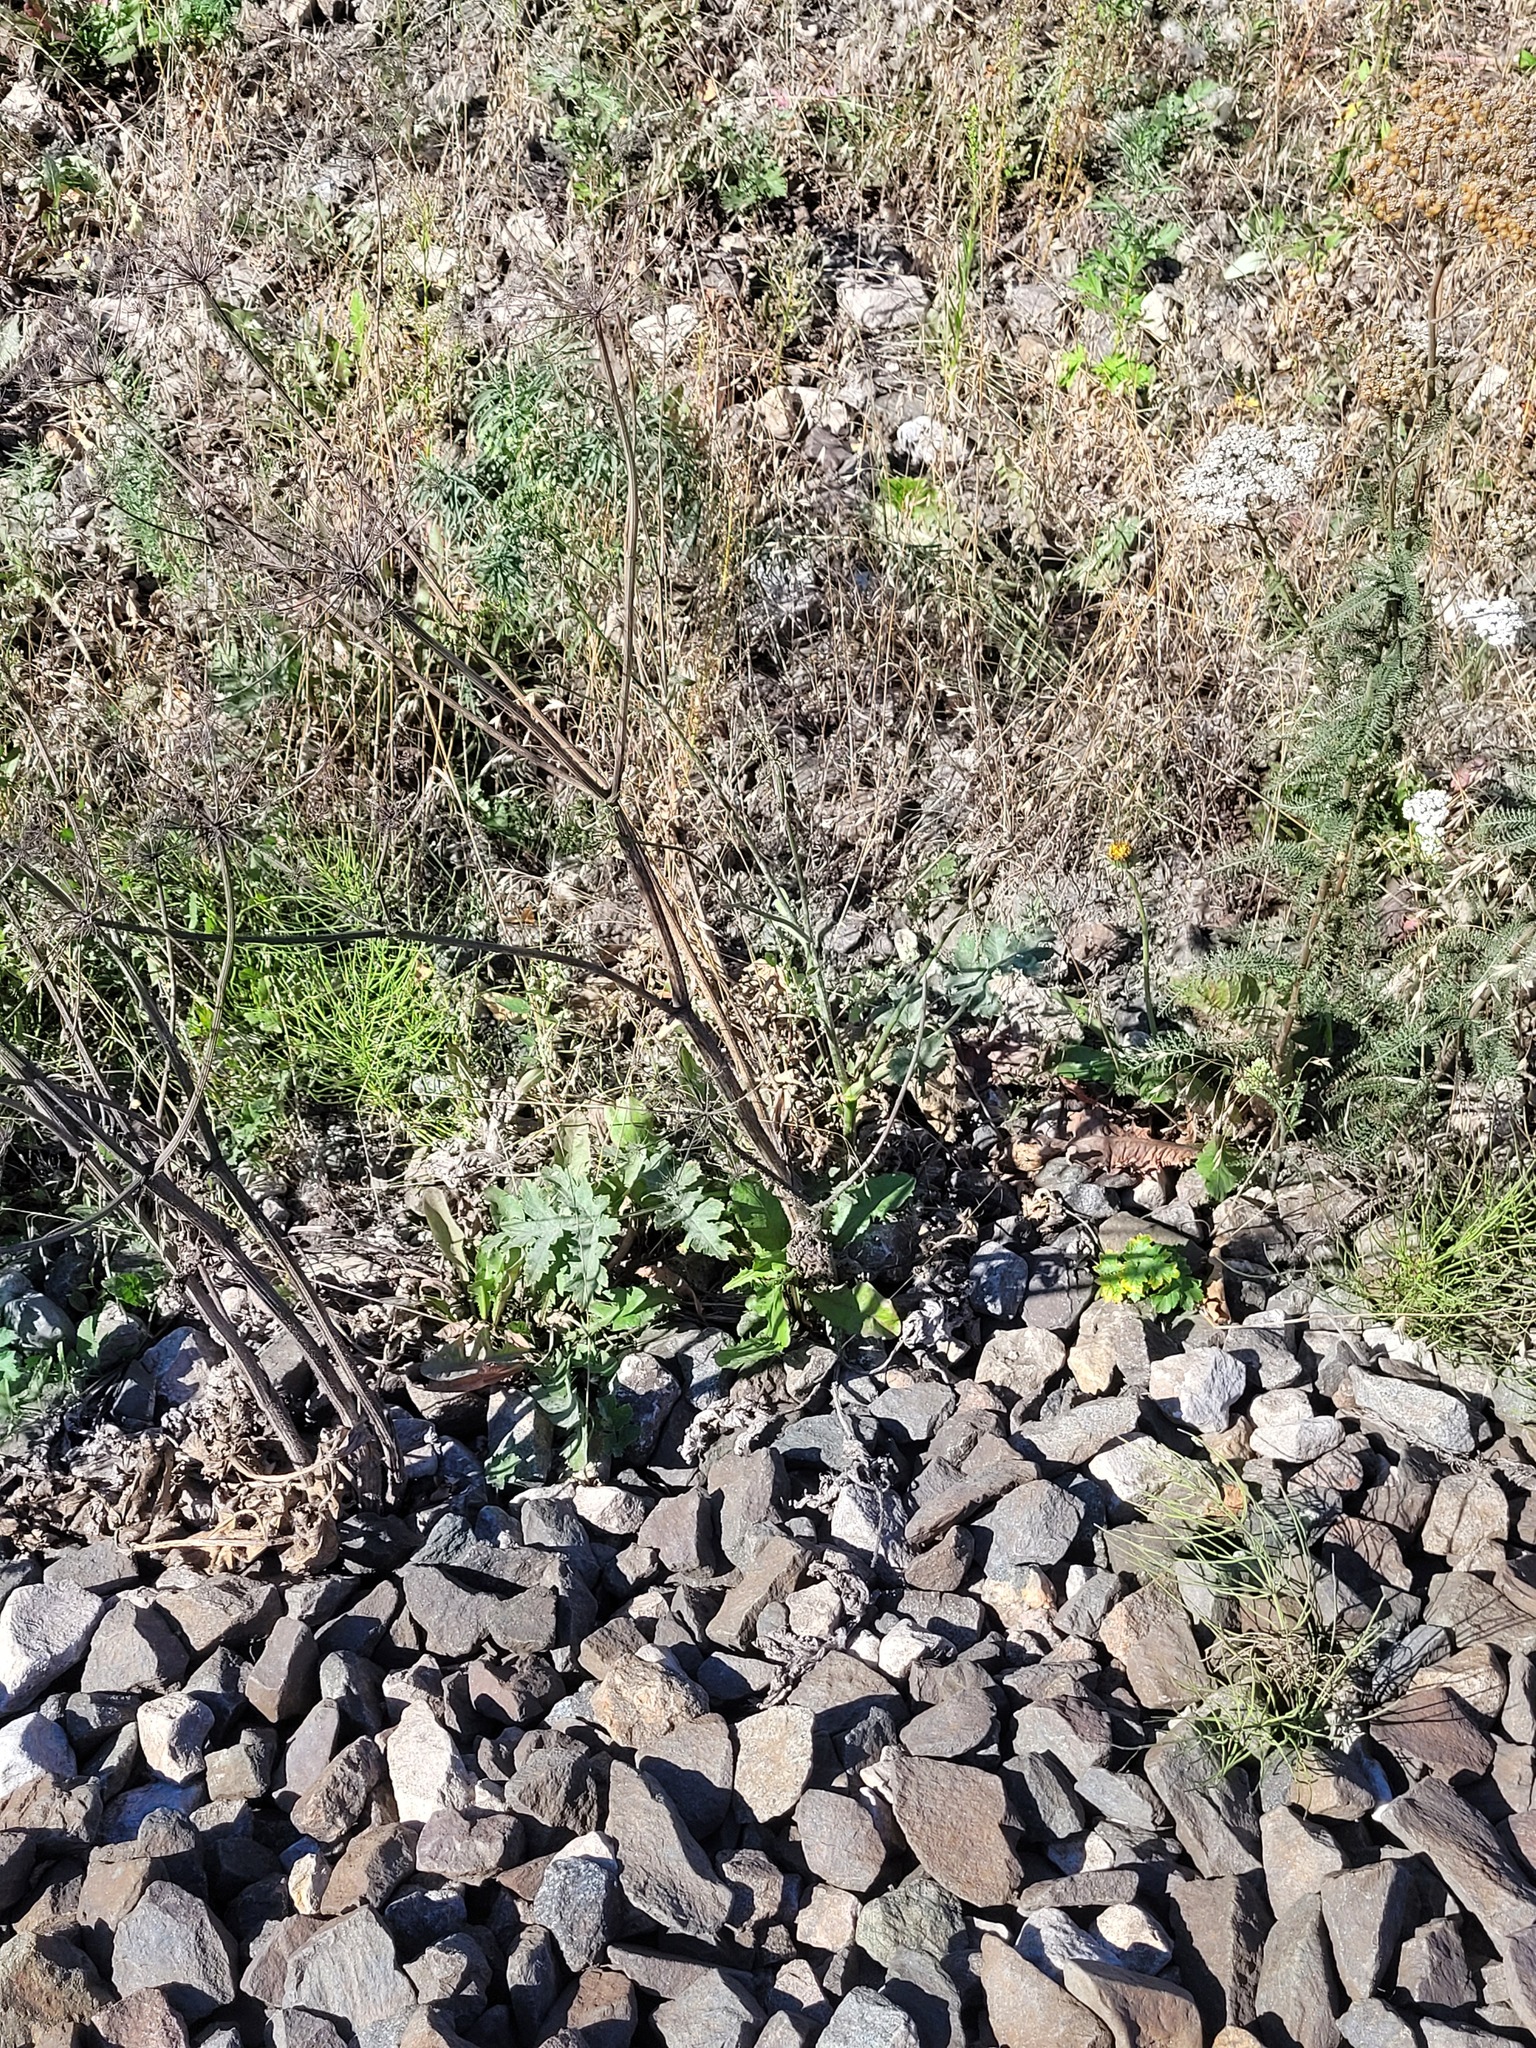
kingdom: Plantae
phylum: Tracheophyta
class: Magnoliopsida
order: Apiales
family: Apiaceae
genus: Heracleum
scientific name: Heracleum sphondylium
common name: Hogweed
